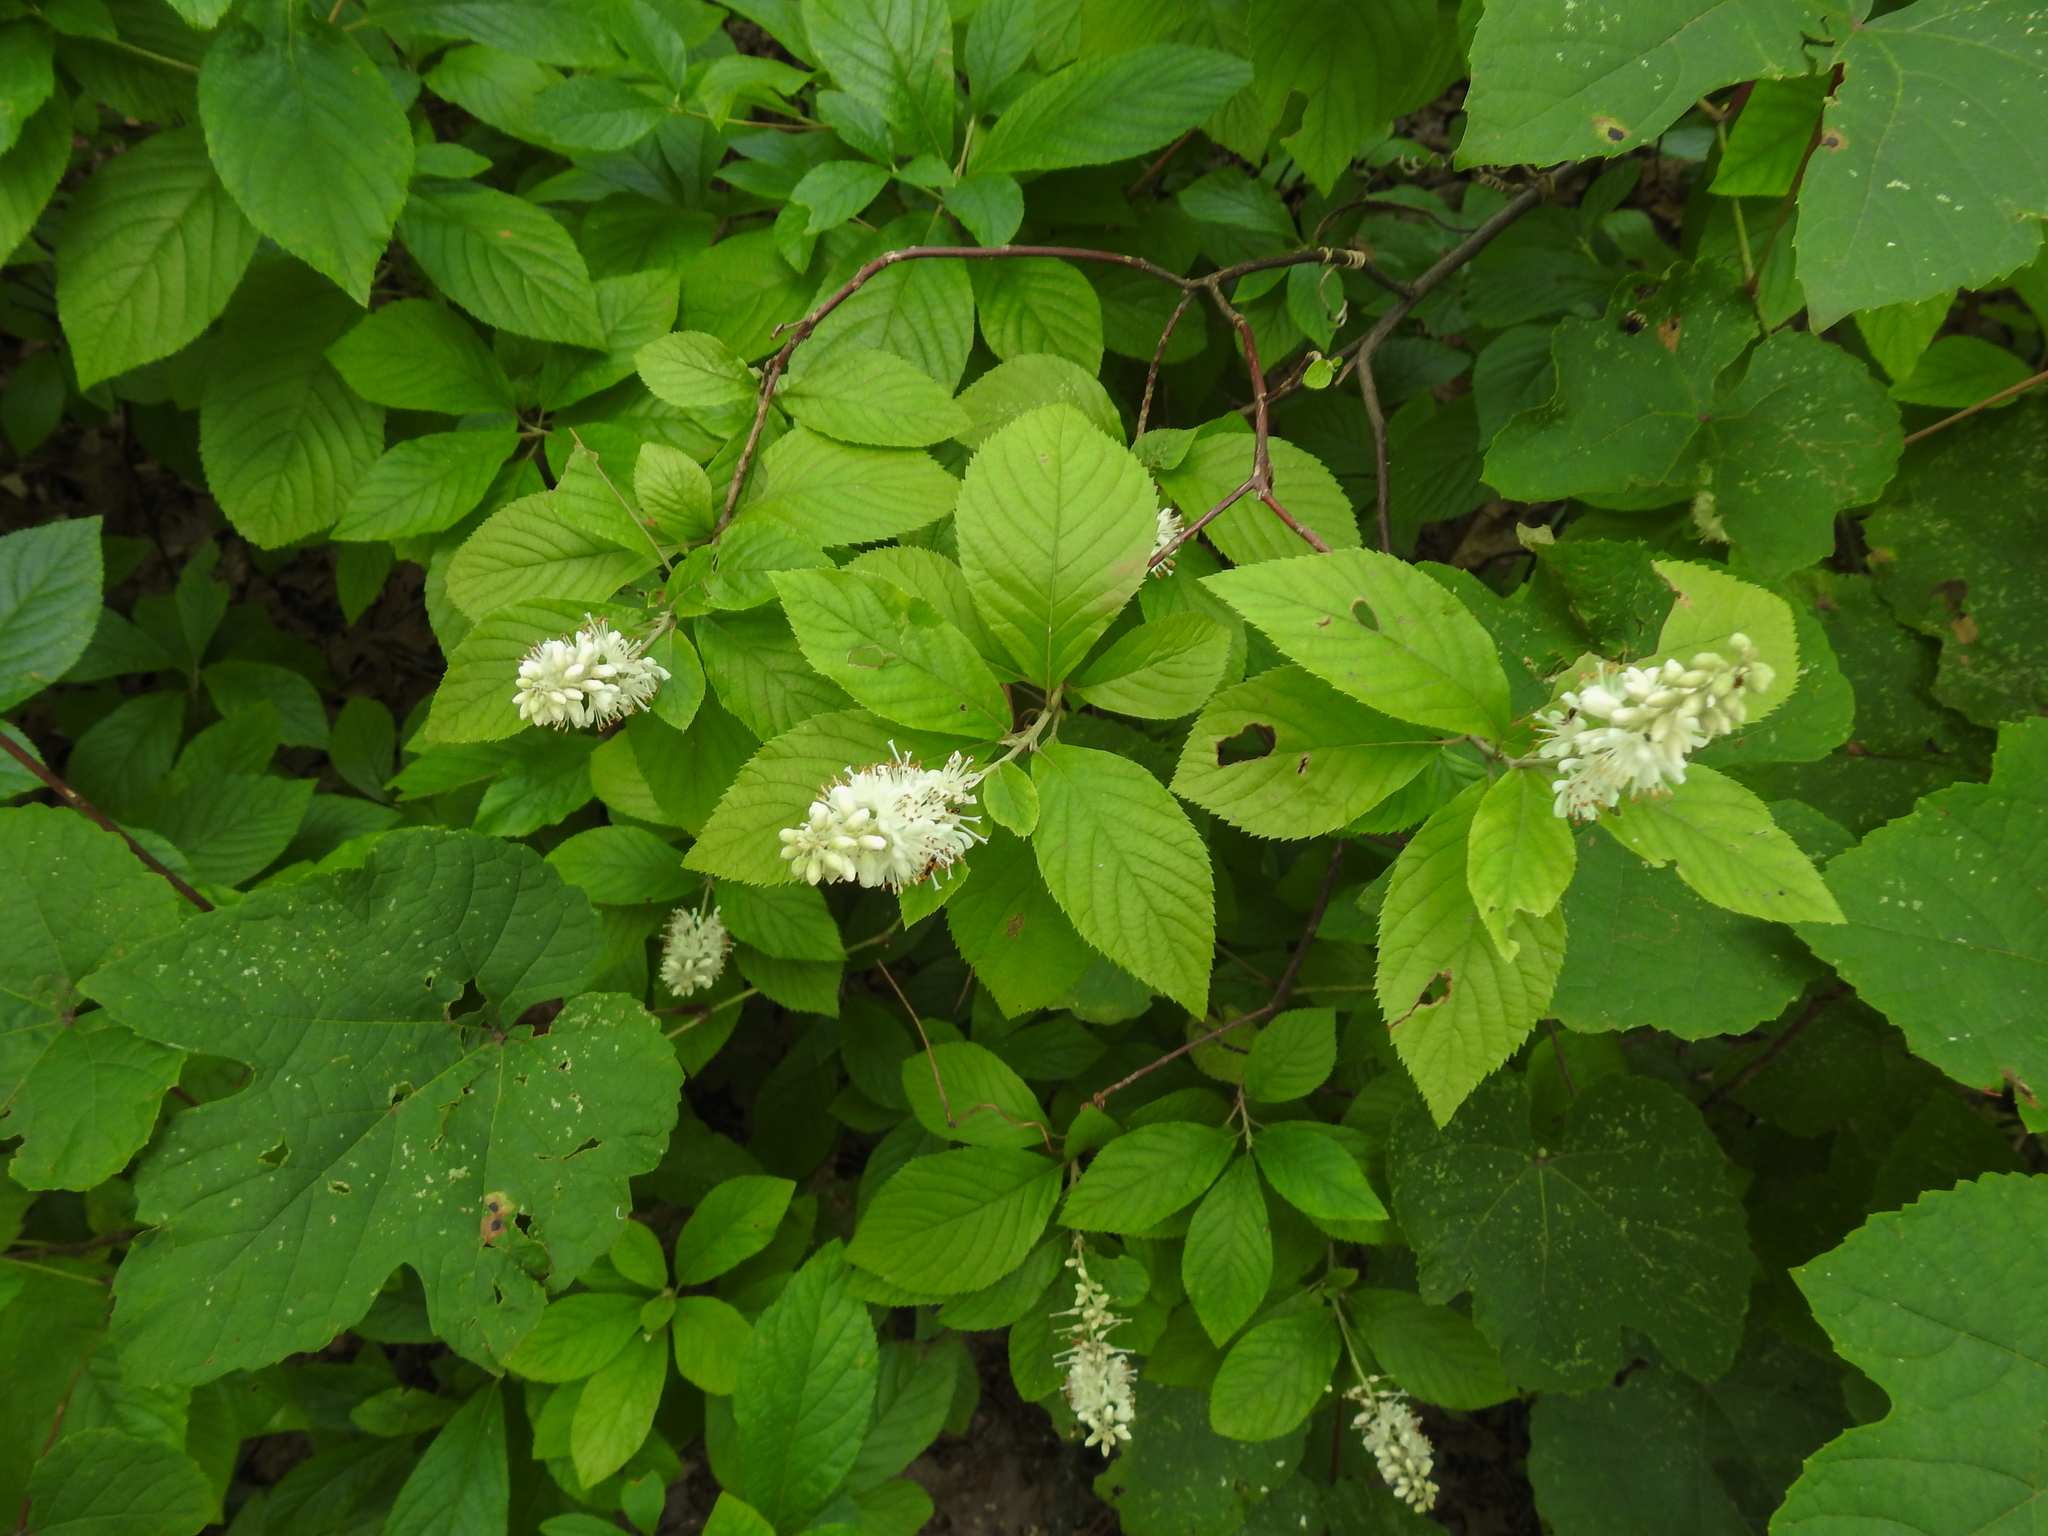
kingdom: Plantae
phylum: Tracheophyta
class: Magnoliopsida
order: Ericales
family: Clethraceae
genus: Clethra
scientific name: Clethra alnifolia
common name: Sweet pepperbush
